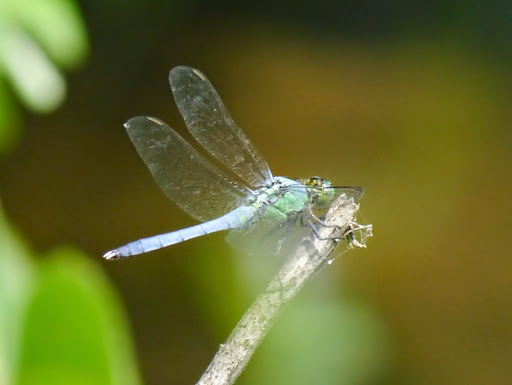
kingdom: Animalia
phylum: Arthropoda
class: Insecta
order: Odonata
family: Libellulidae
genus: Erythemis
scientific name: Erythemis simplicicollis
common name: Eastern pondhawk
